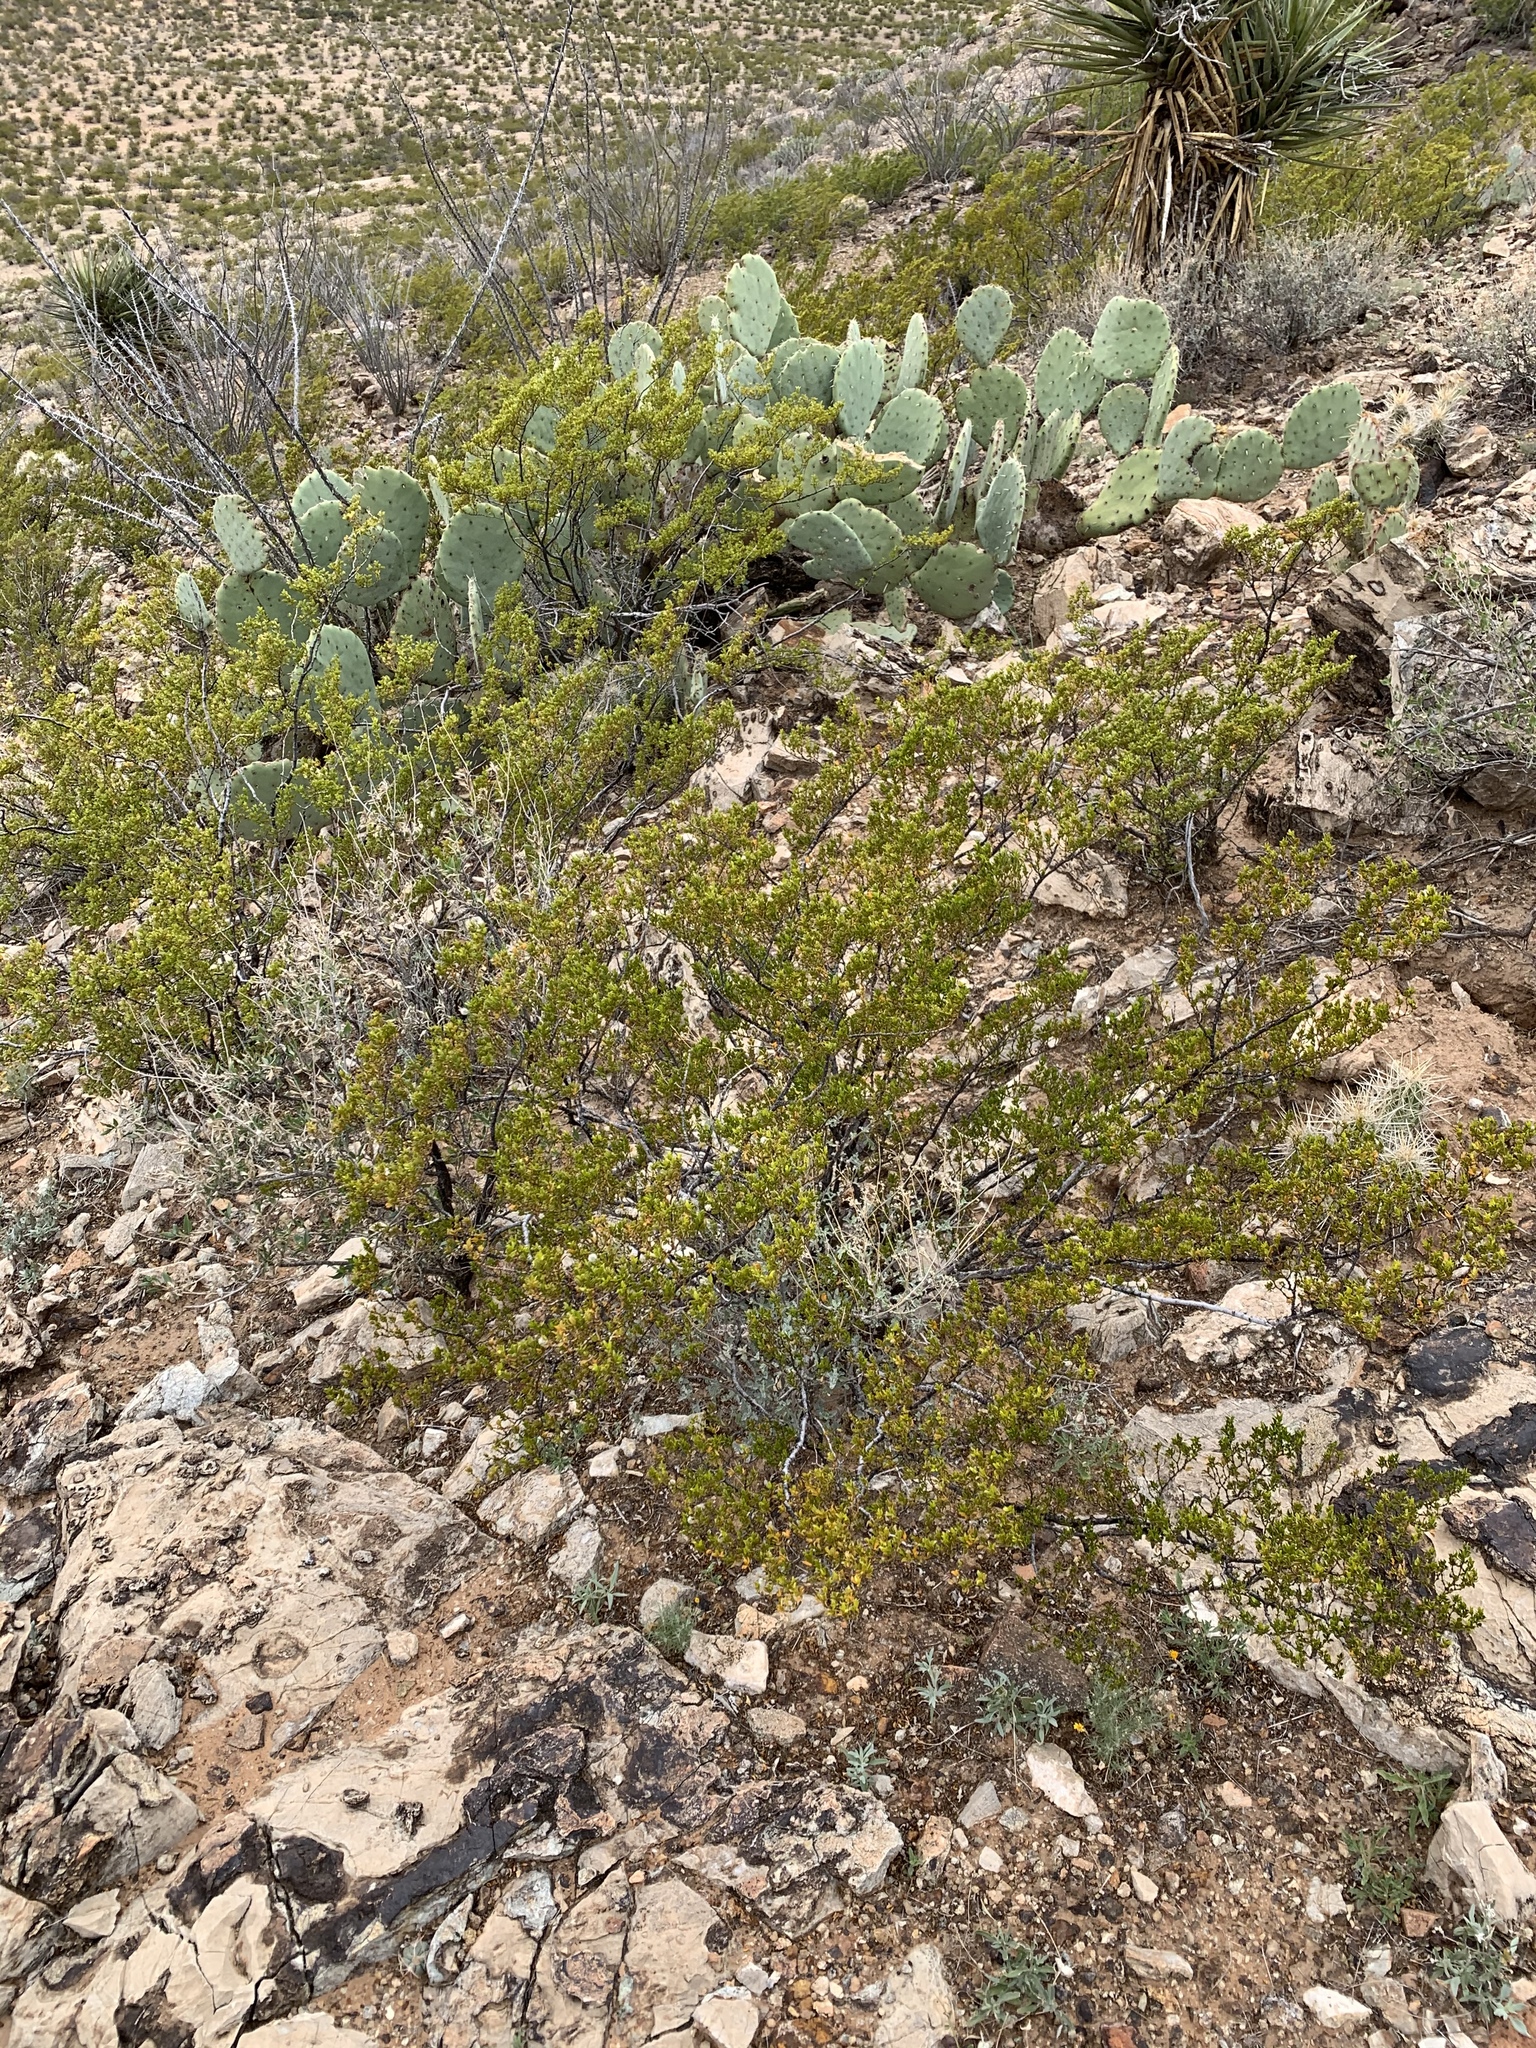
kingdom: Plantae
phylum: Tracheophyta
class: Magnoliopsida
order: Zygophyllales
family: Zygophyllaceae
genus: Larrea
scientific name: Larrea tridentata
